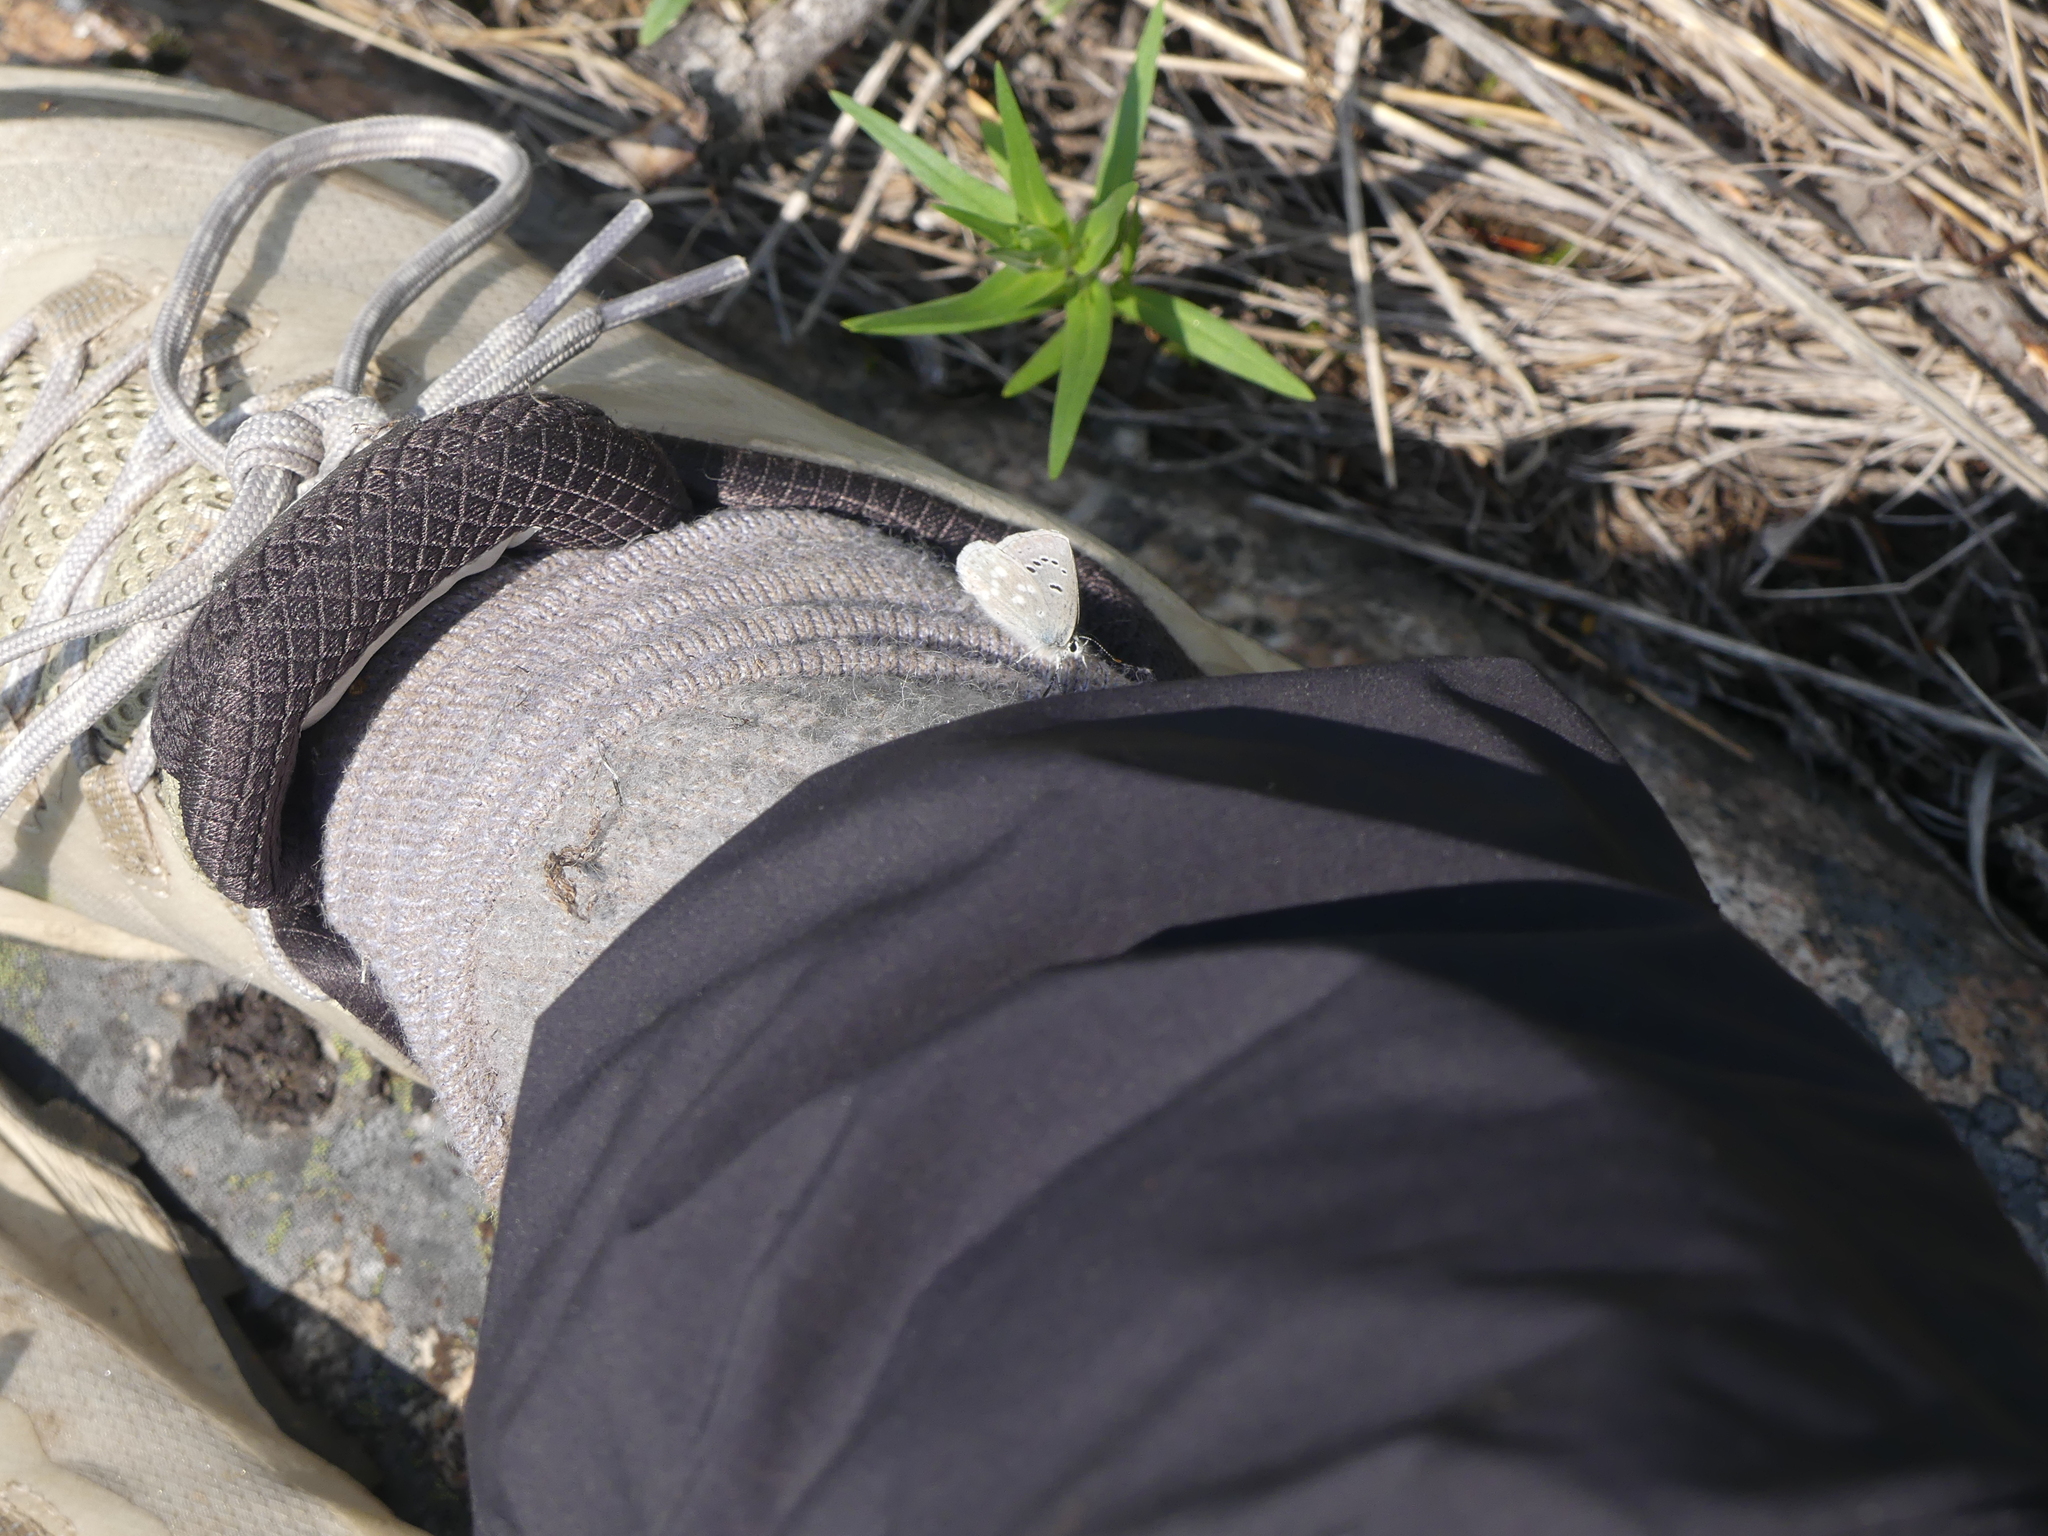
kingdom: Animalia
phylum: Arthropoda
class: Insecta
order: Lepidoptera
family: Lycaenidae
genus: Icaricia
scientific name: Icaricia icarioides
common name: Boisduval's blue
